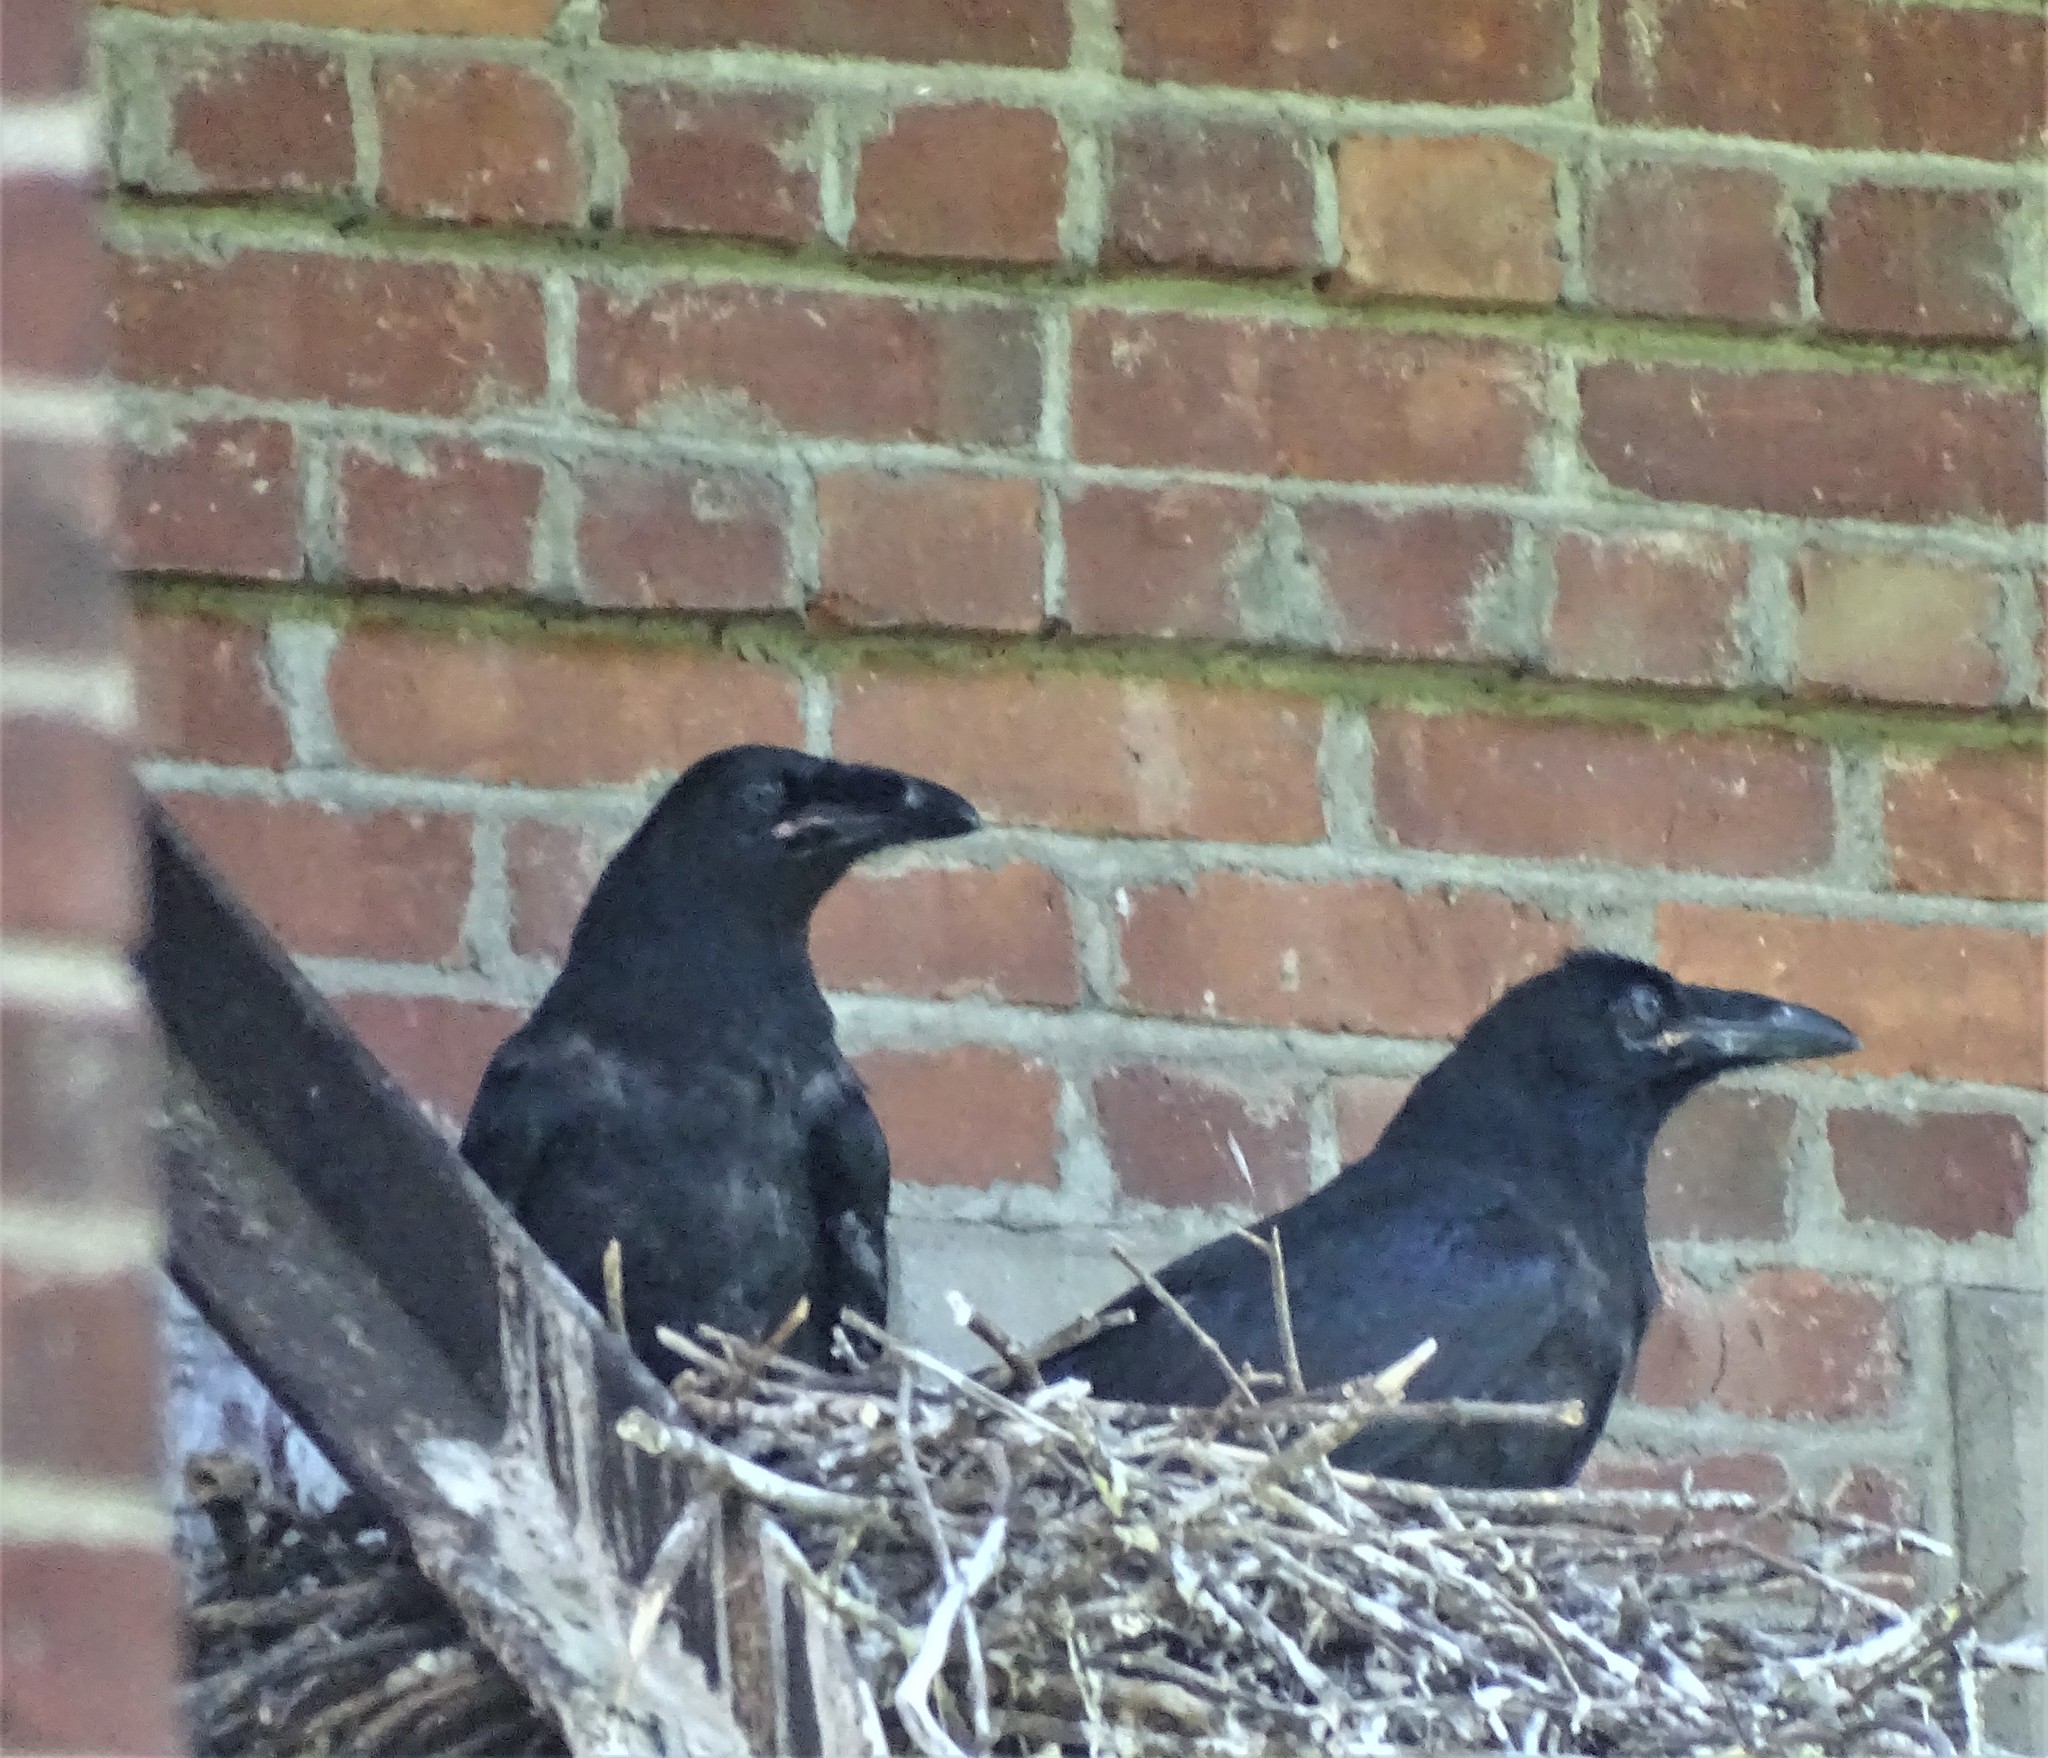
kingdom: Animalia
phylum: Chordata
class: Aves
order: Passeriformes
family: Corvidae
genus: Corvus
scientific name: Corvus corax
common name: Common raven
